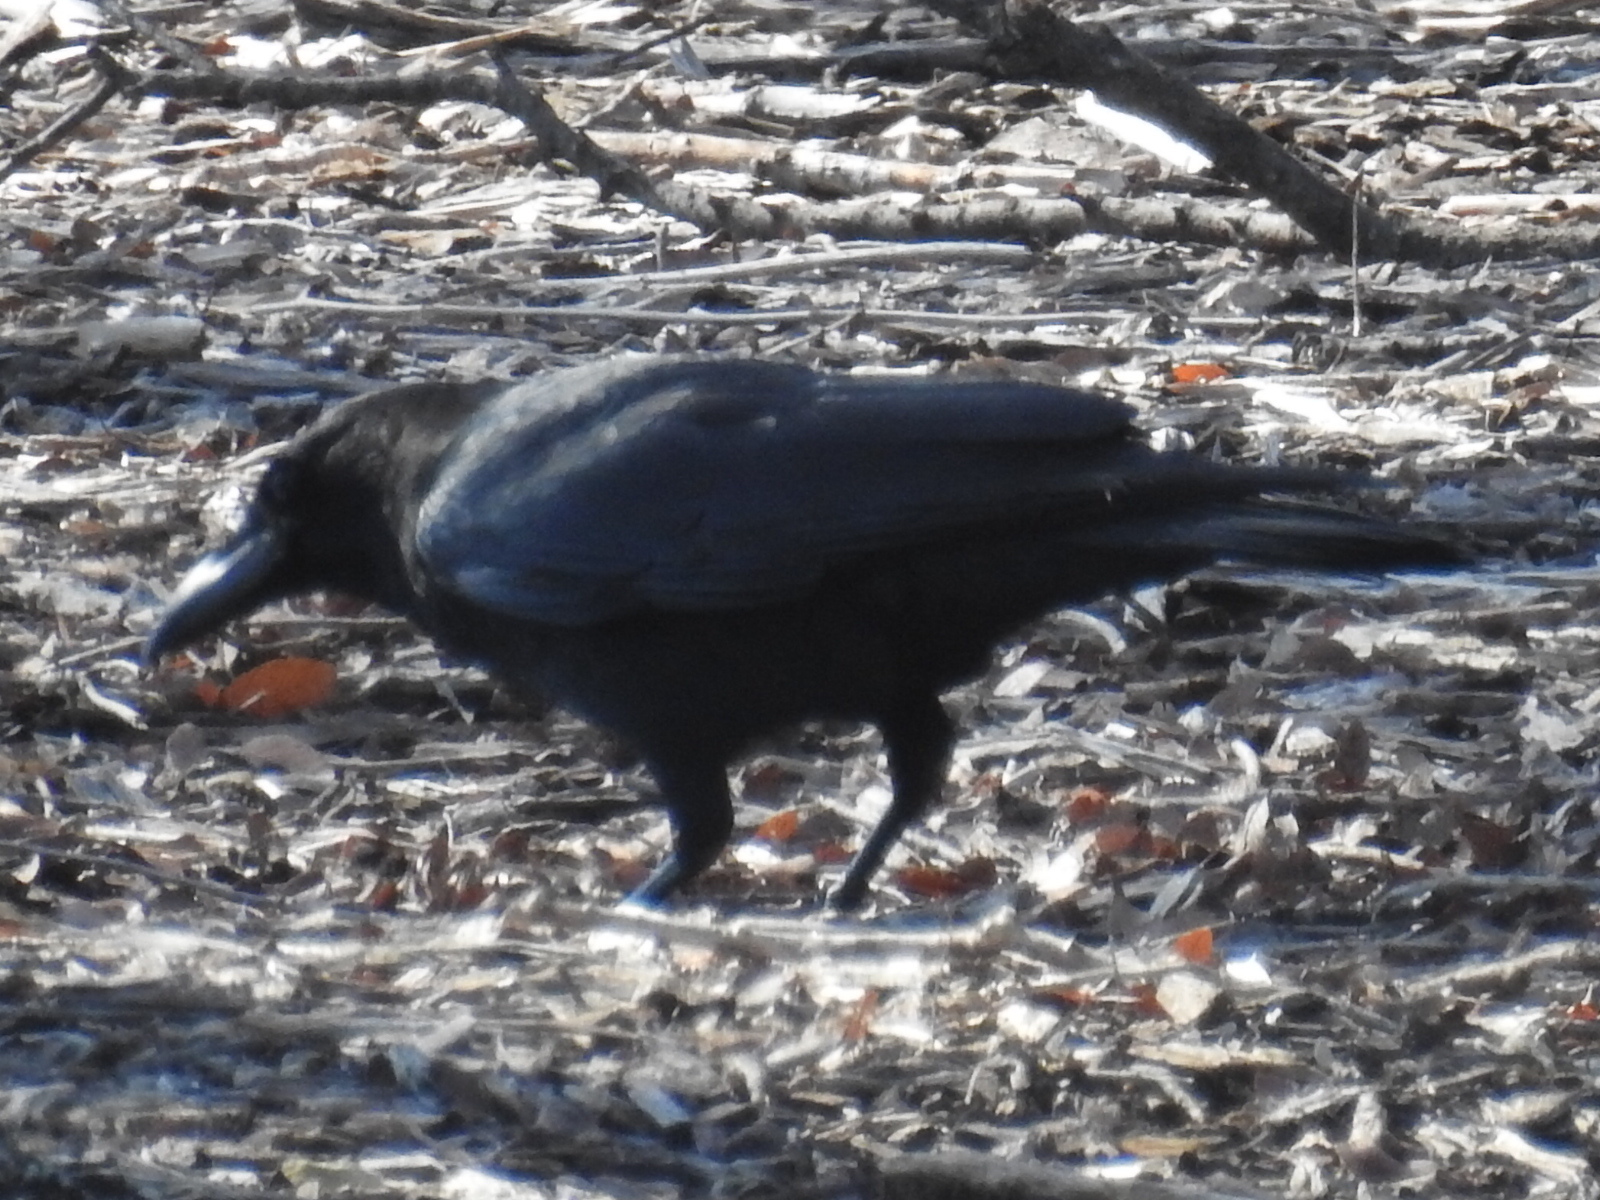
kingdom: Animalia
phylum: Chordata
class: Aves
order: Passeriformes
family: Corvidae
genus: Corvus
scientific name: Corvus brachyrhynchos
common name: American crow
